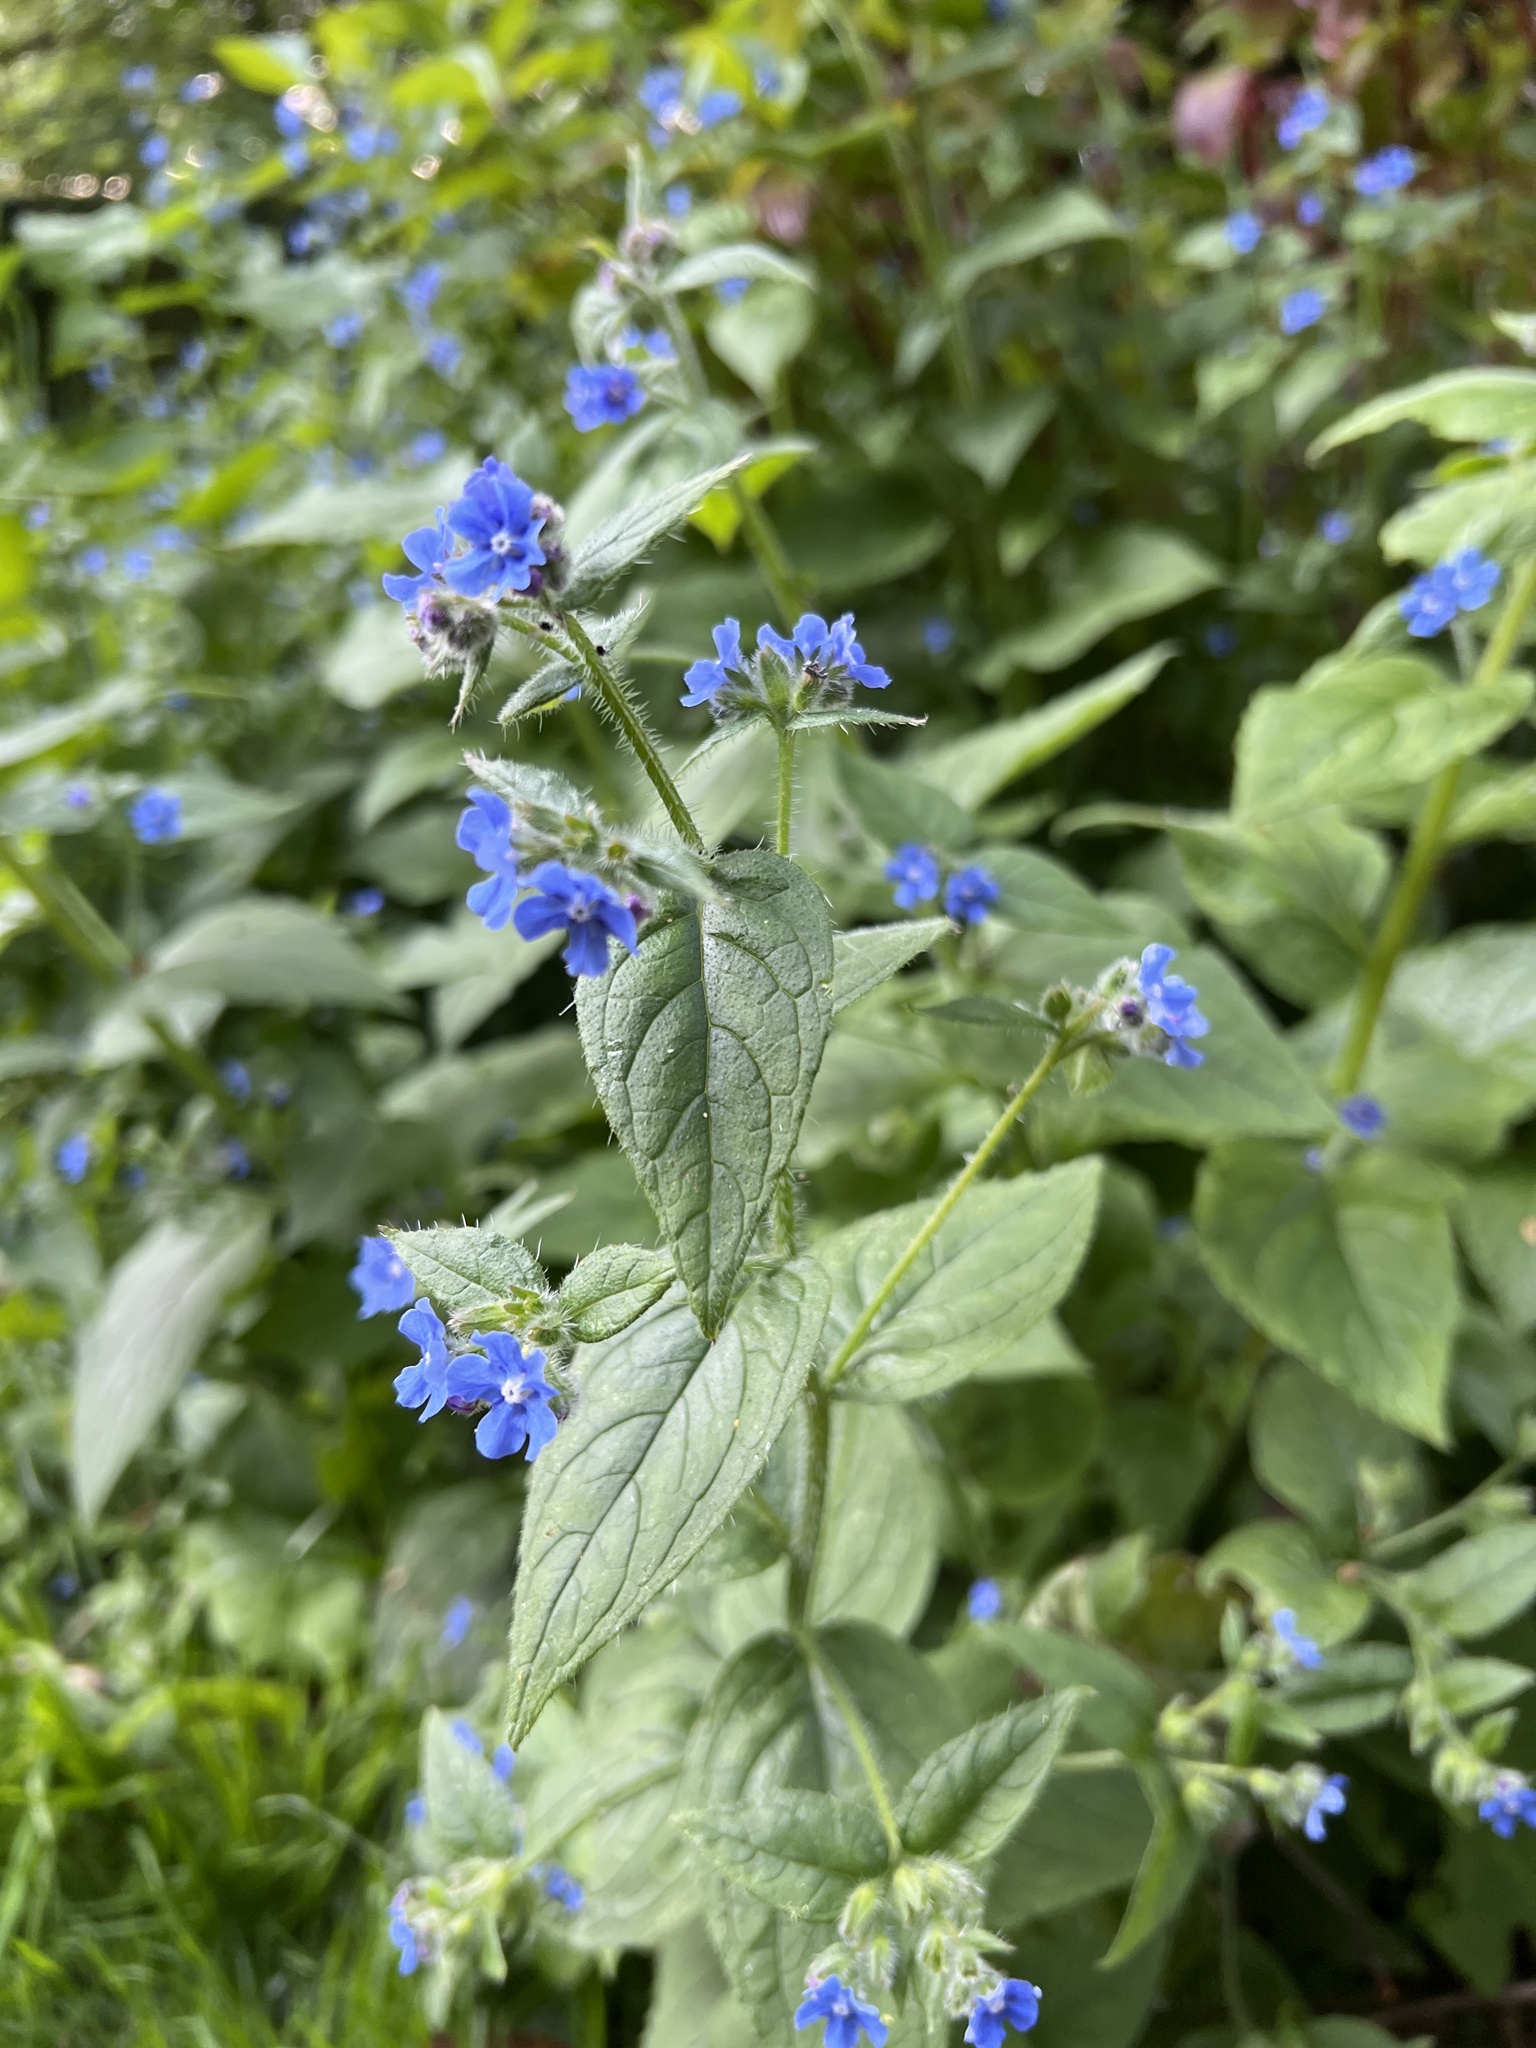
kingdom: Plantae
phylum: Tracheophyta
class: Magnoliopsida
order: Boraginales
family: Boraginaceae
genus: Pentaglottis
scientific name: Pentaglottis sempervirens
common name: Green alkanet
